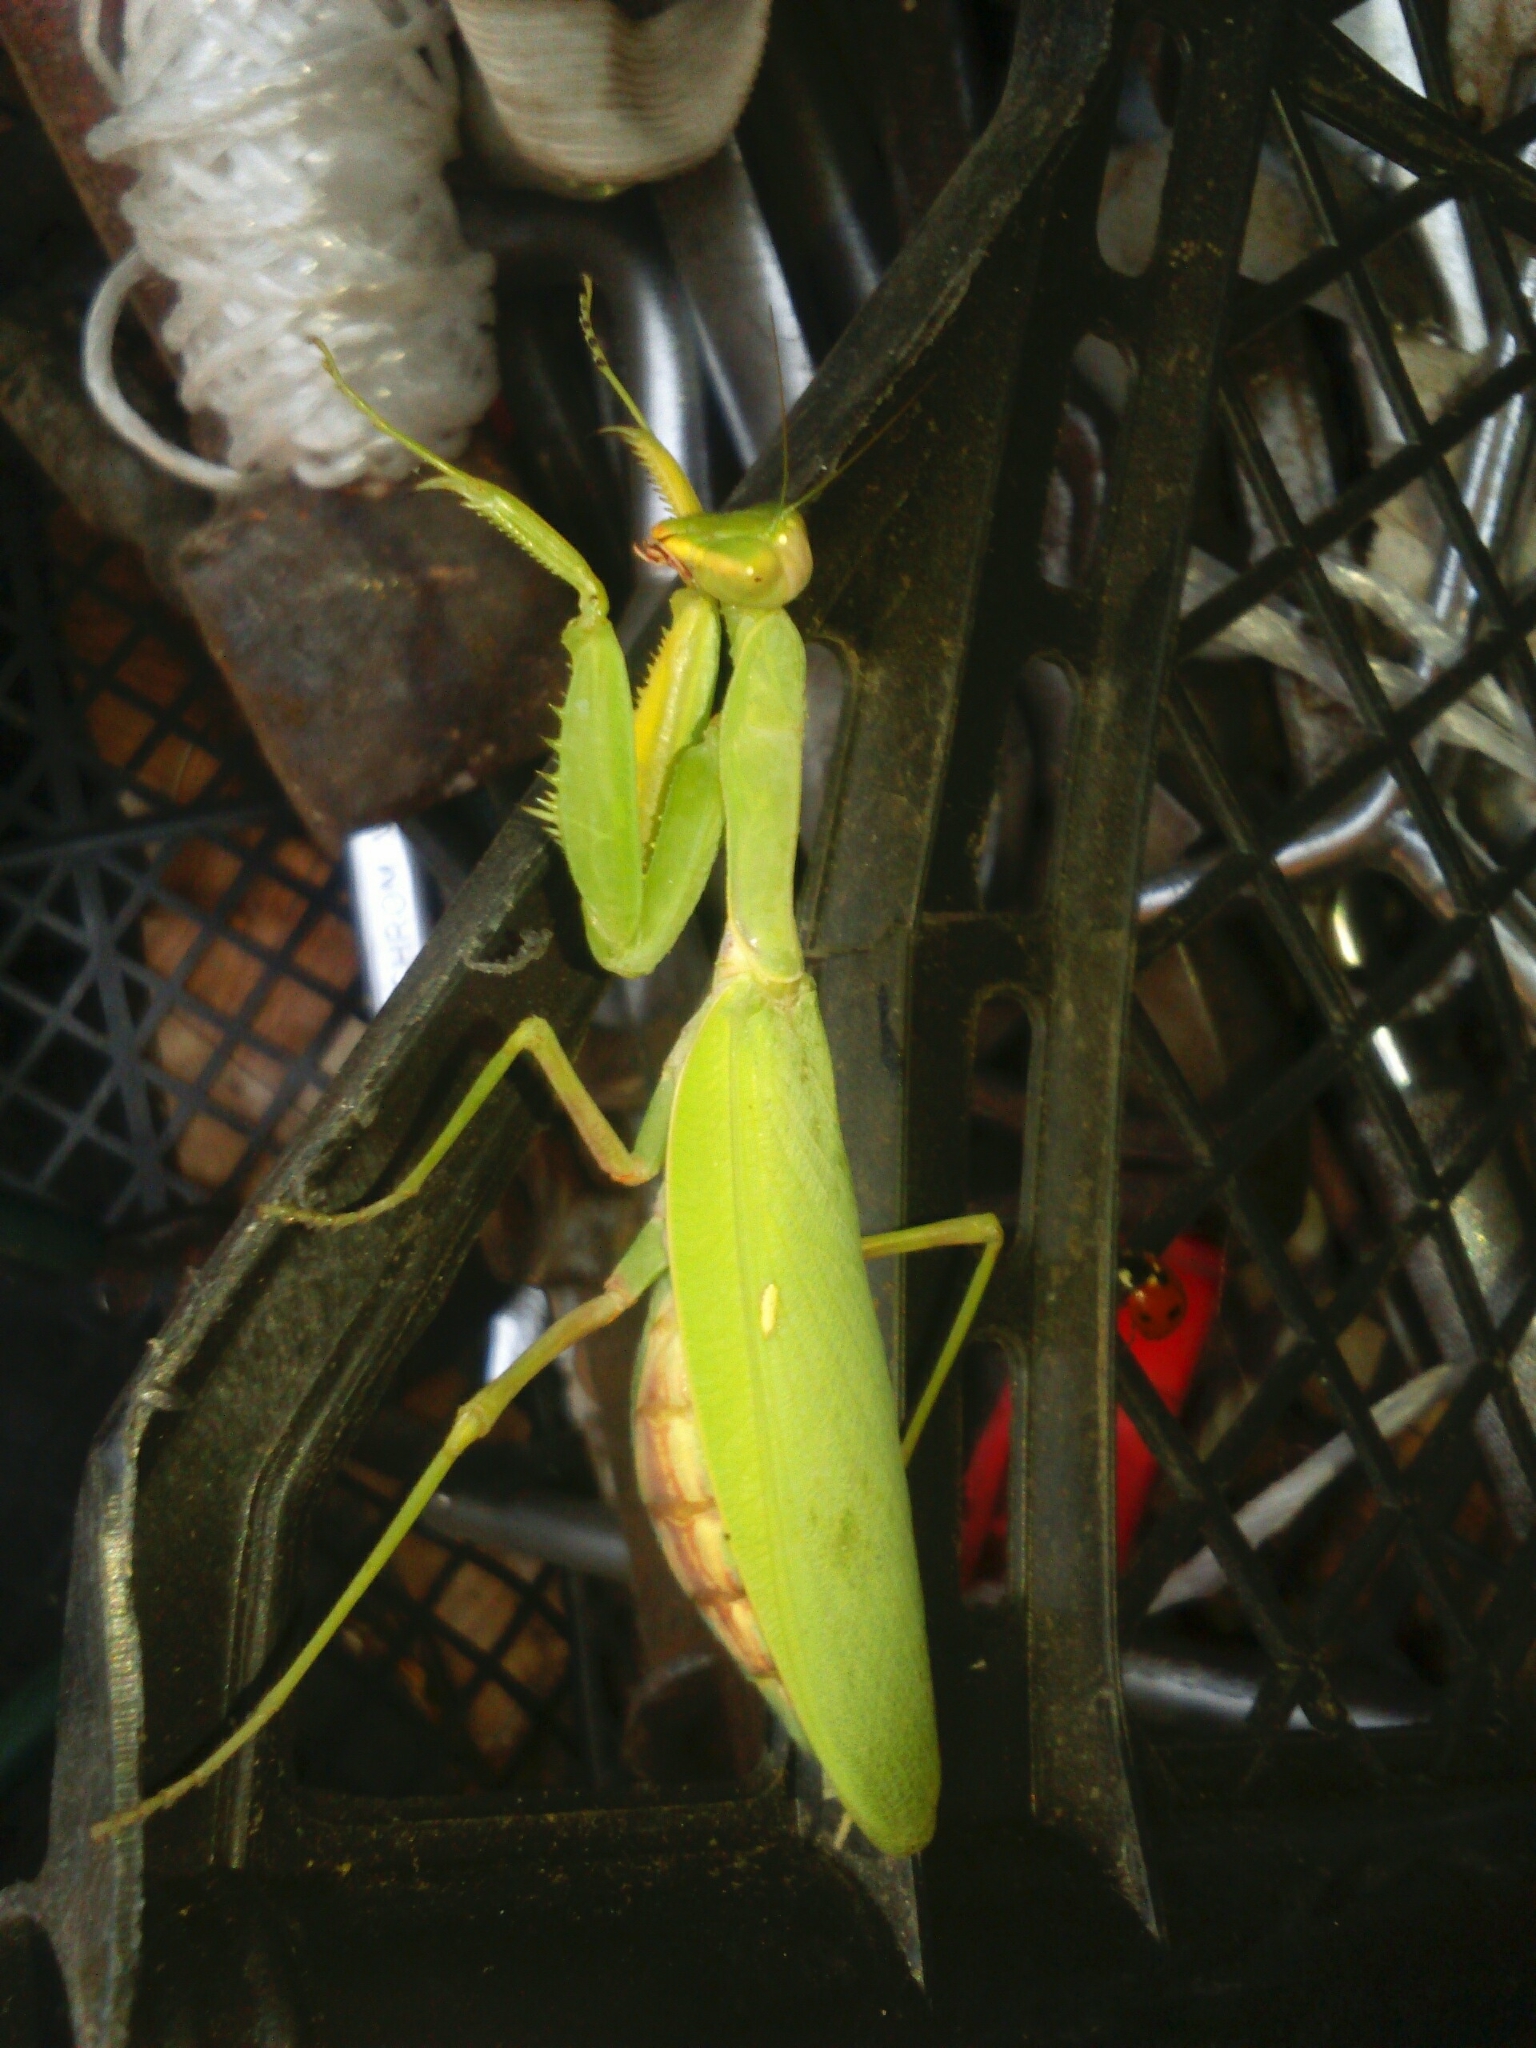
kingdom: Animalia
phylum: Arthropoda
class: Insecta
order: Mantodea
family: Mantidae
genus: Hierodula
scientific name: Hierodula transcaucasica
